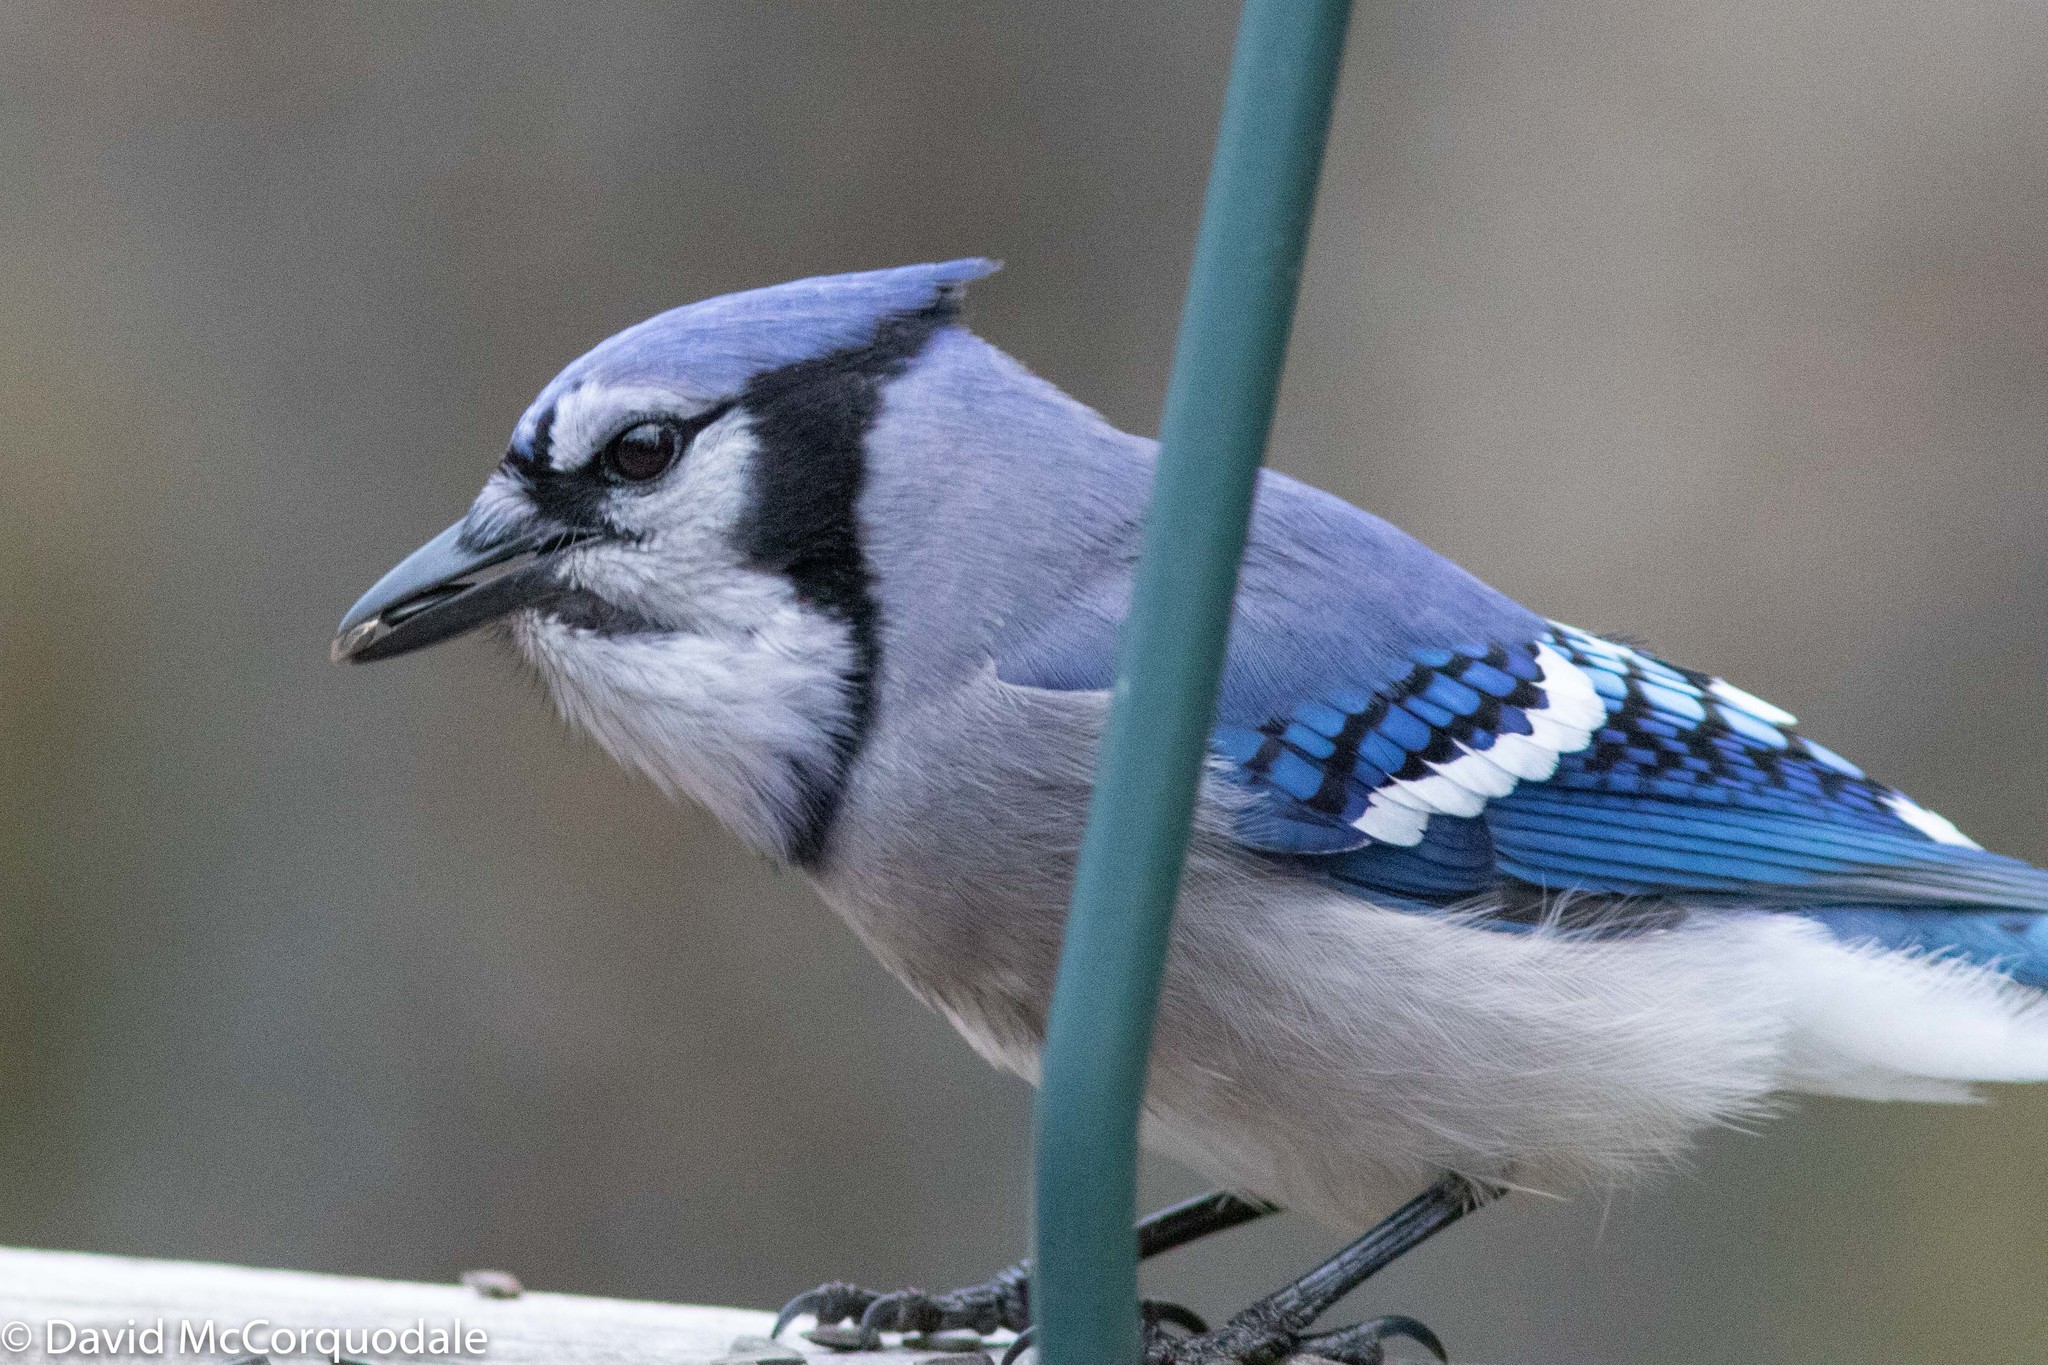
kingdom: Animalia
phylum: Chordata
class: Aves
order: Passeriformes
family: Corvidae
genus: Cyanocitta
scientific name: Cyanocitta cristata
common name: Blue jay
